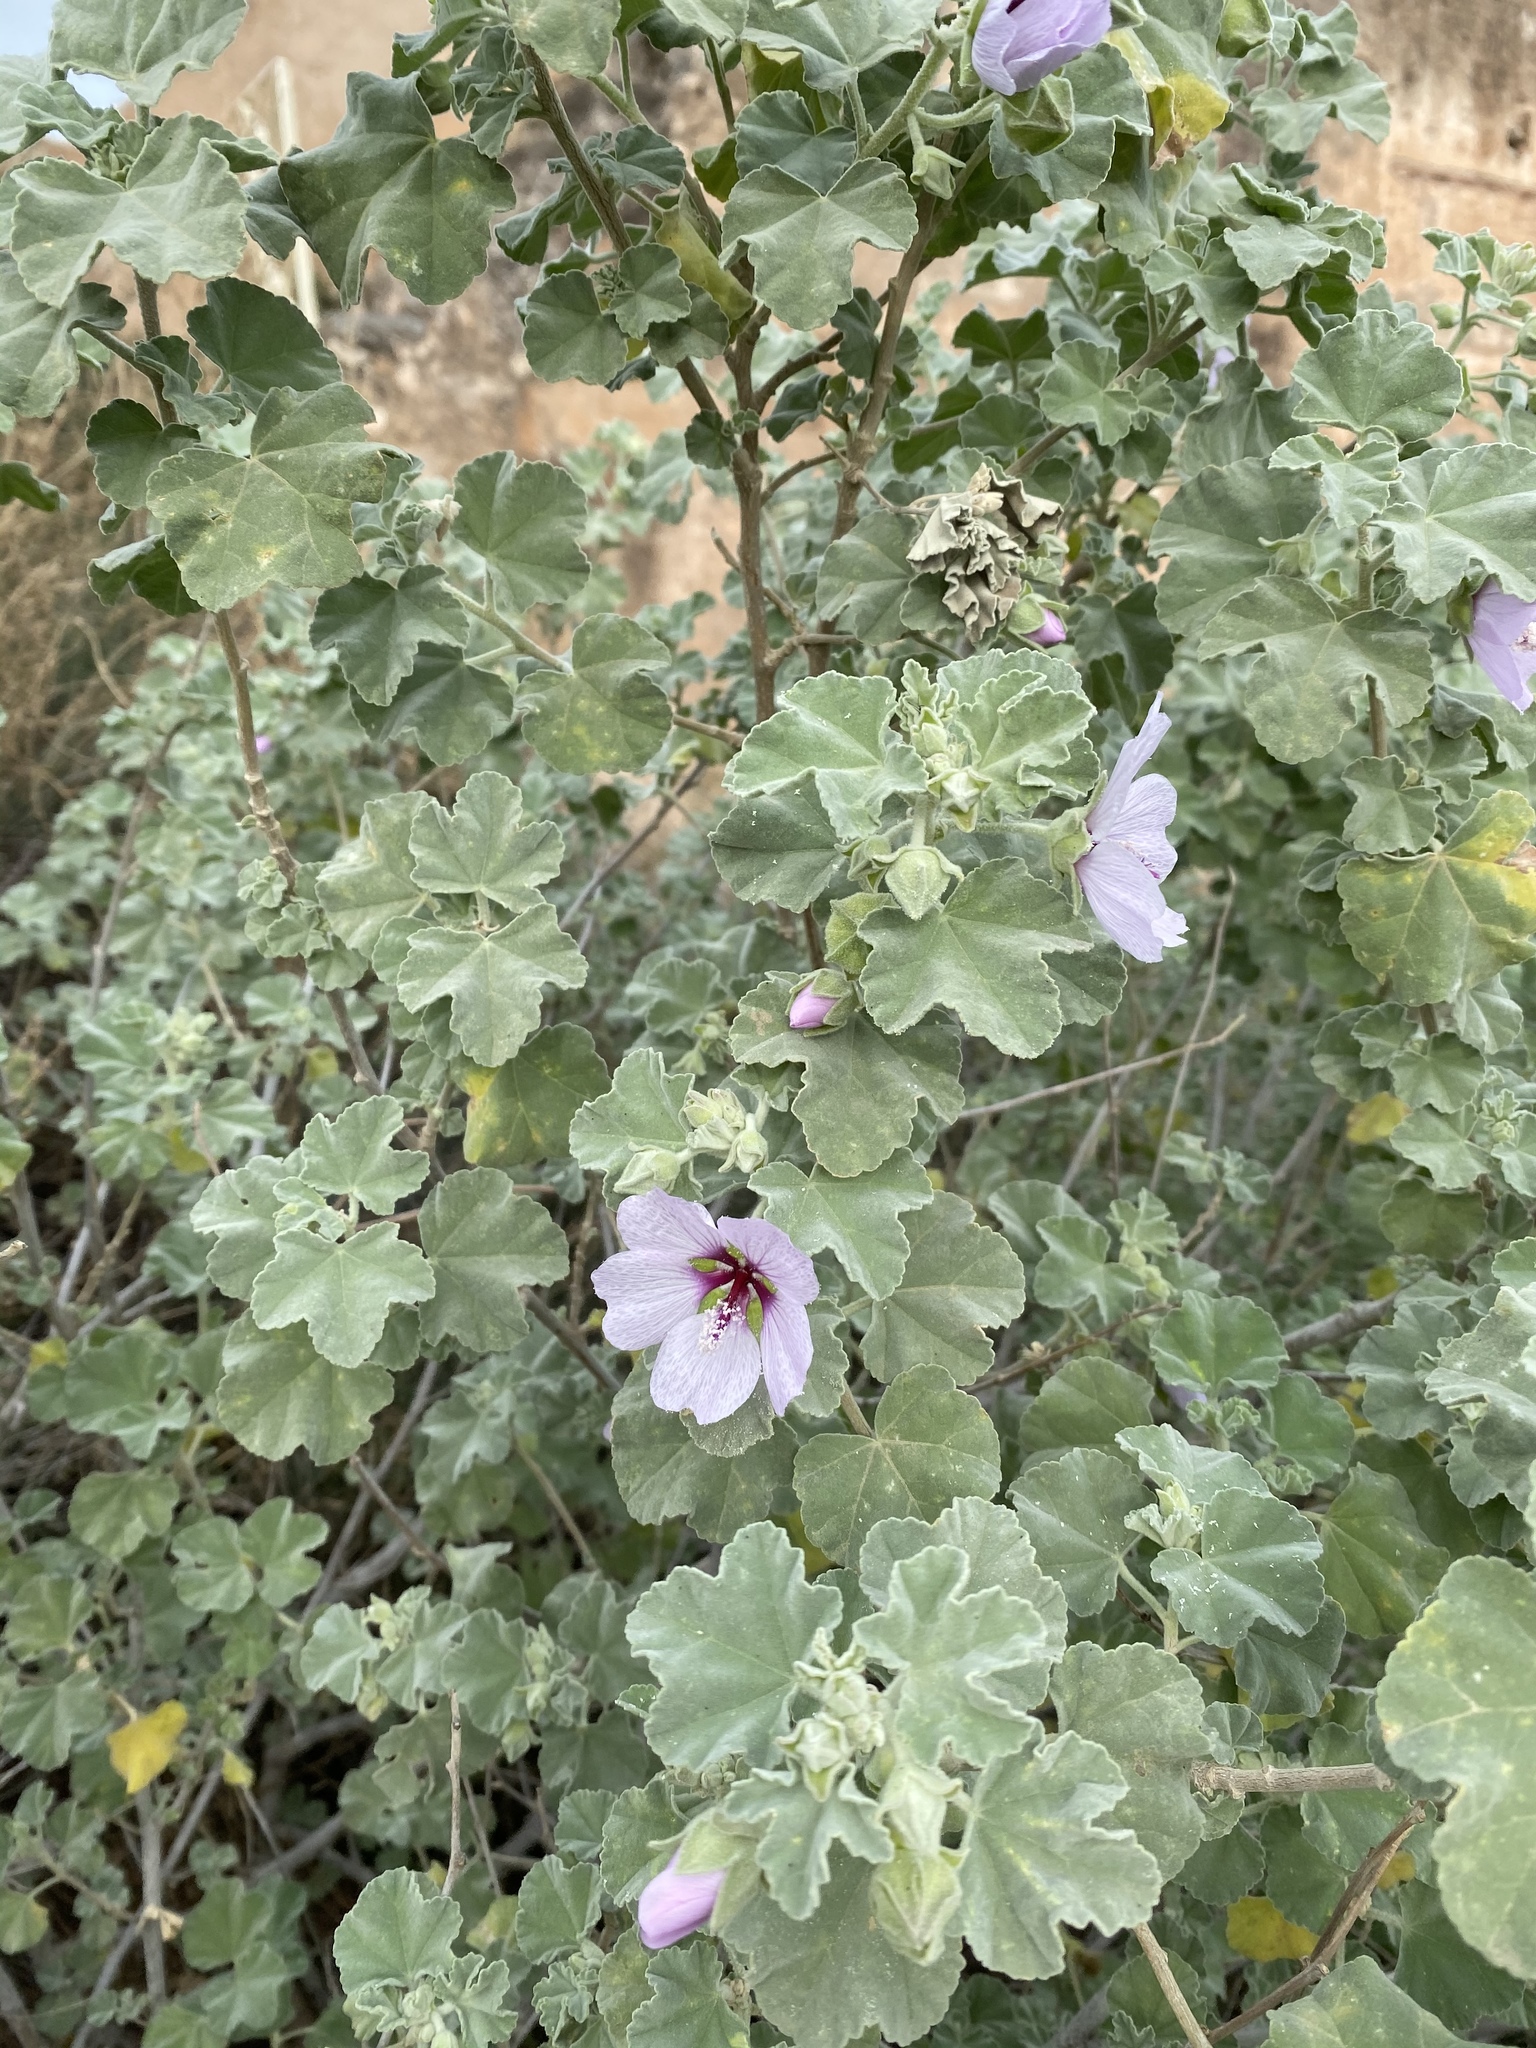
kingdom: Plantae
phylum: Tracheophyta
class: Magnoliopsida
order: Malvales
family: Malvaceae
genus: Malva
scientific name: Malva subovata
